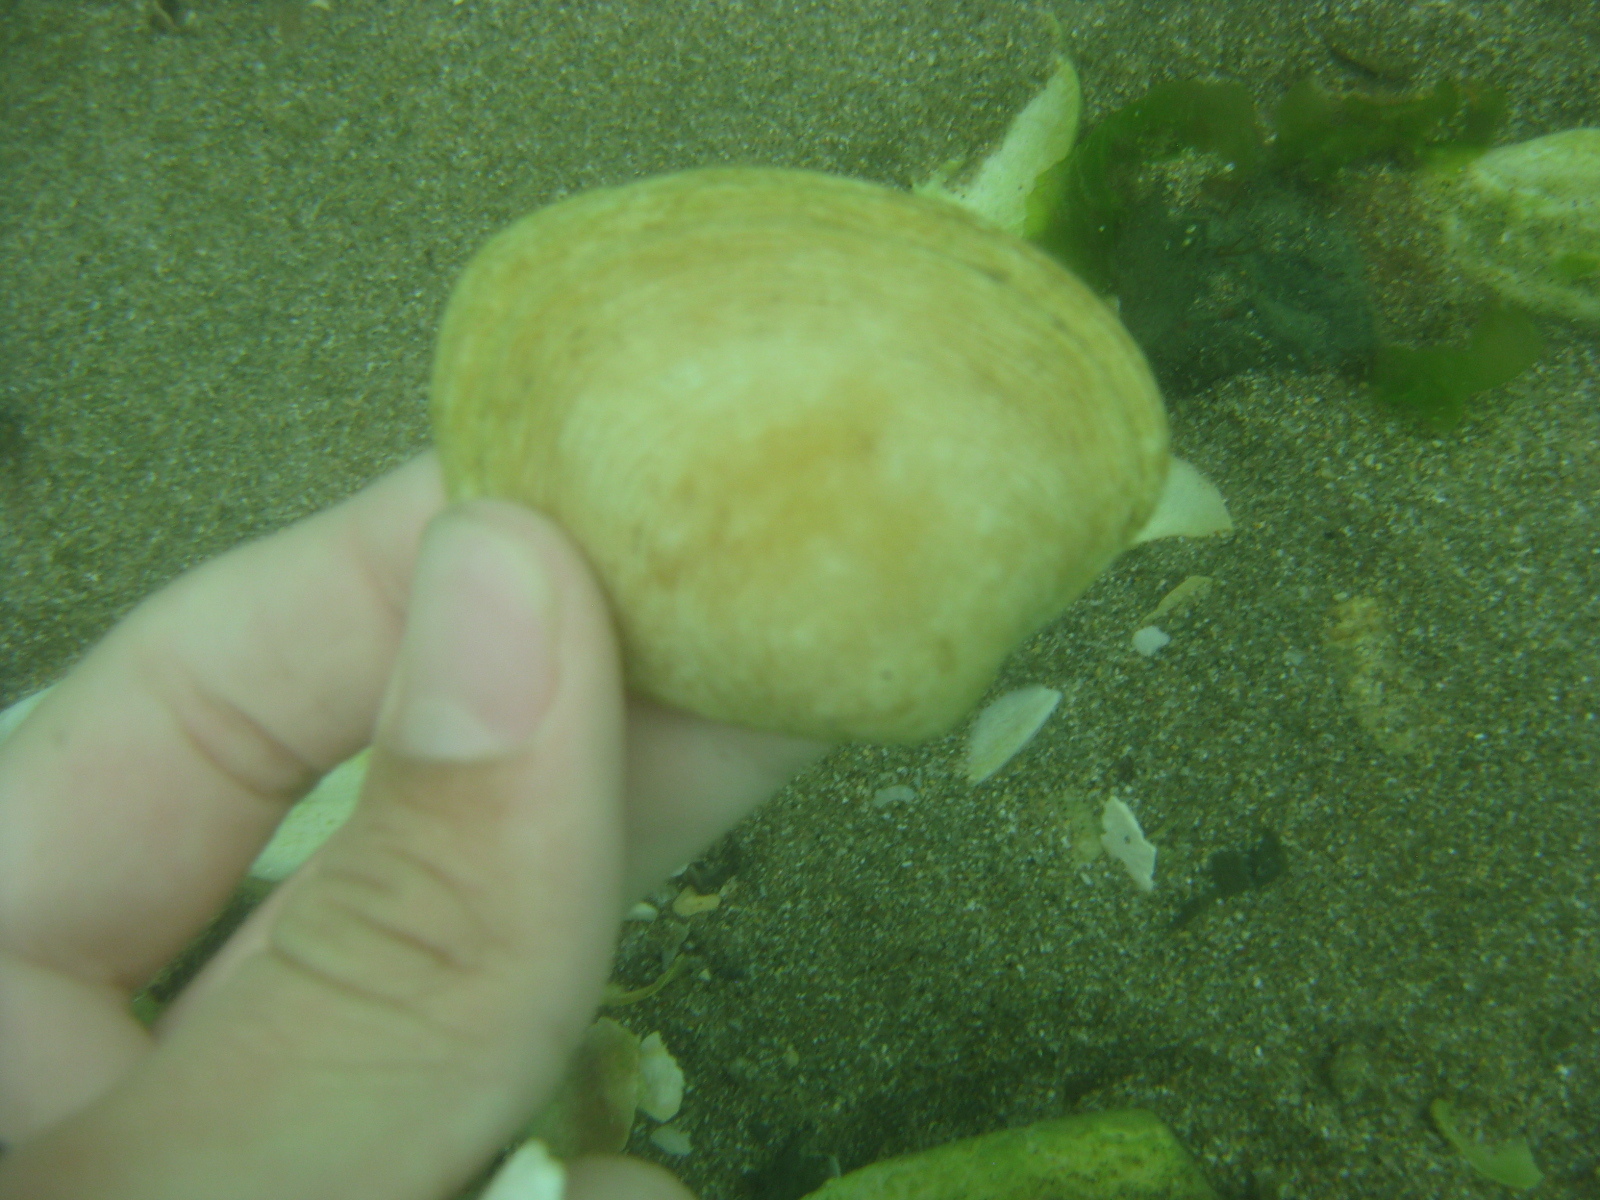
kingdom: Animalia
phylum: Mollusca
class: Bivalvia
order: Venerida
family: Veneridae
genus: Venerupis
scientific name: Venerupis largillierti
